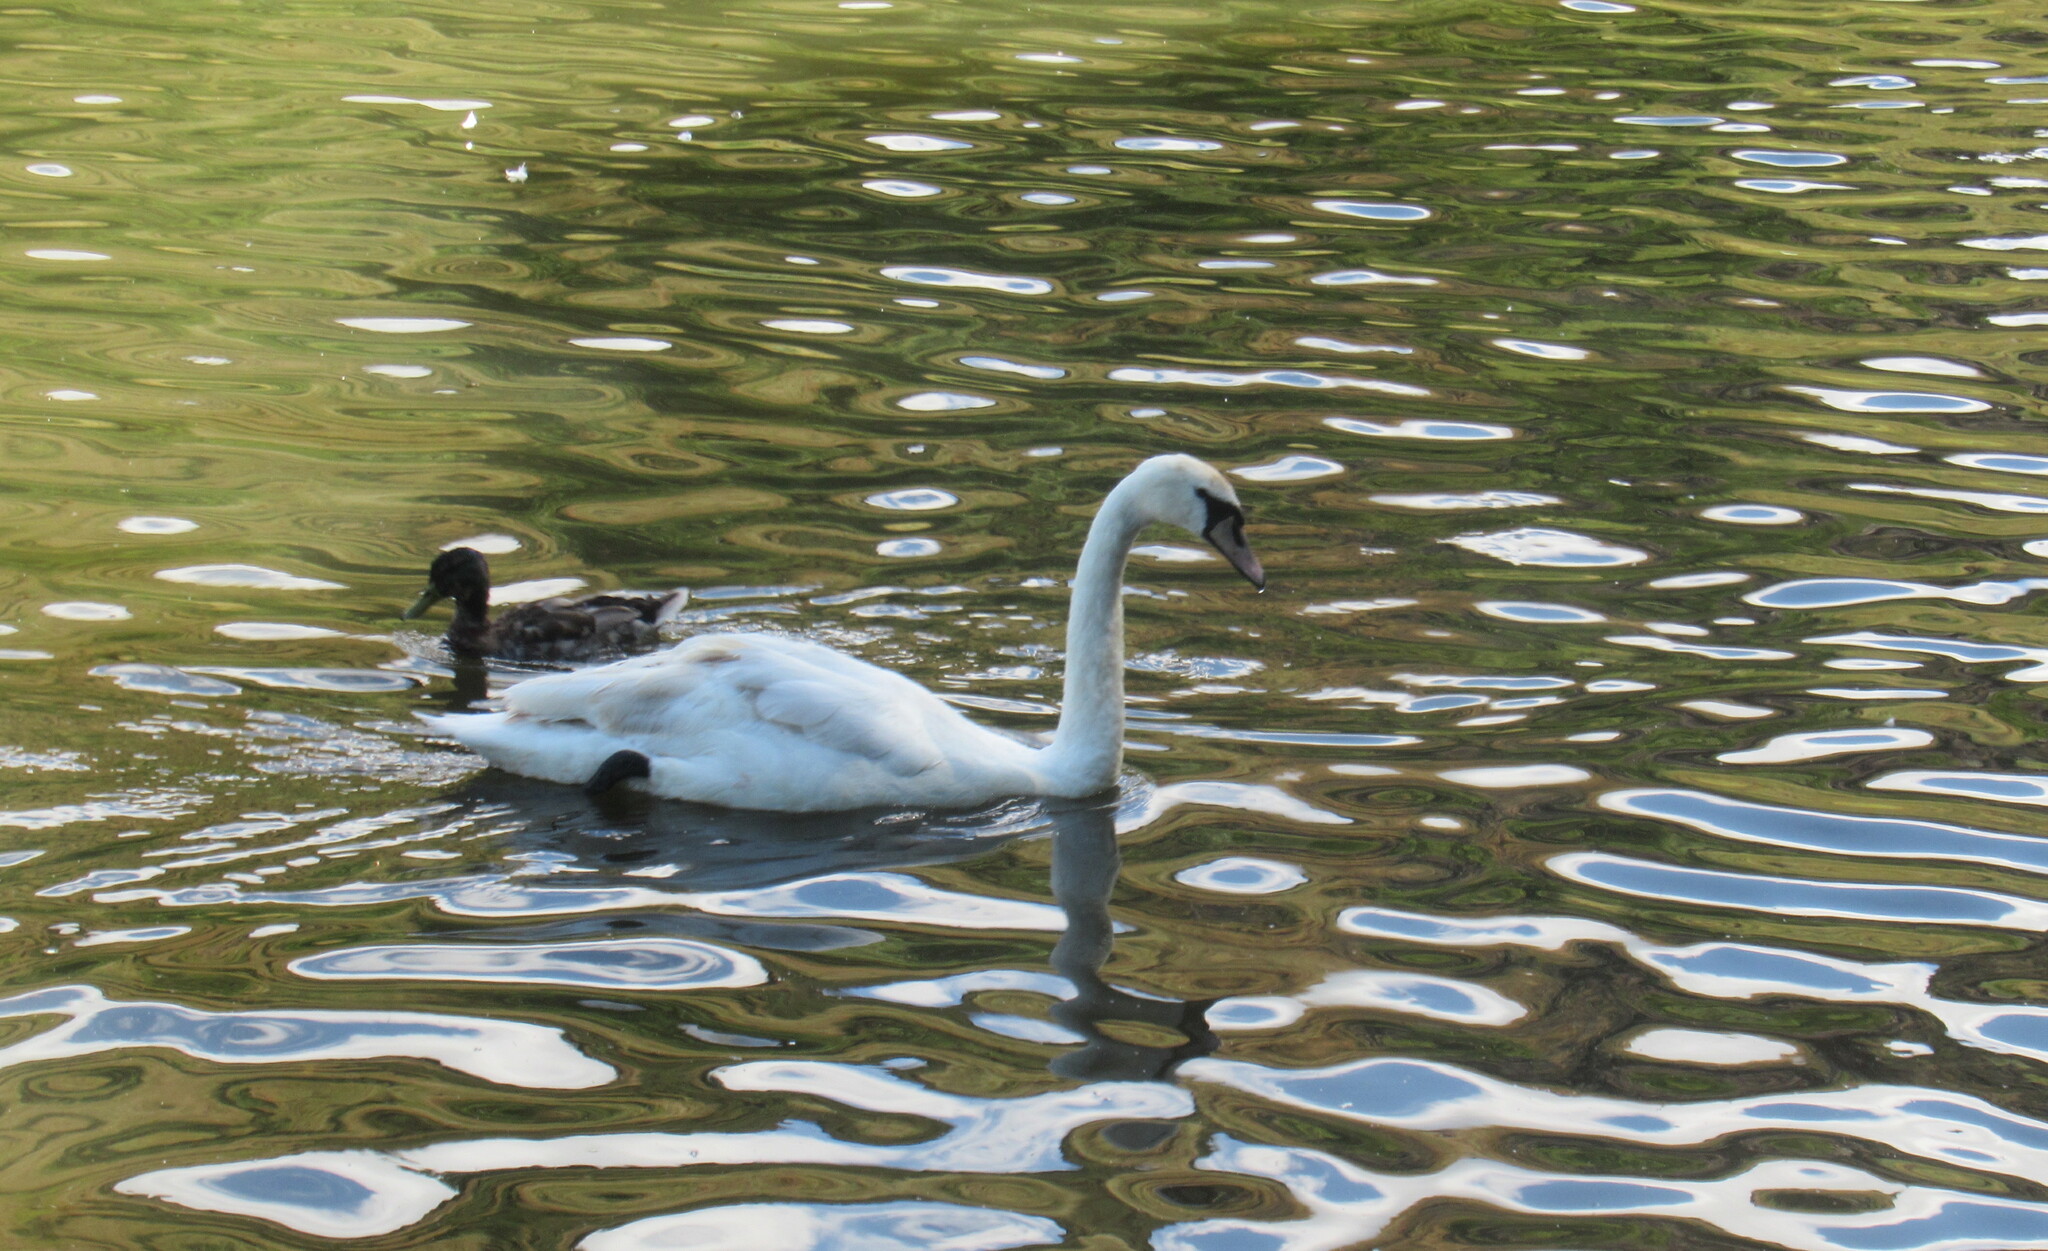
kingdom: Animalia
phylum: Chordata
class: Aves
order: Anseriformes
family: Anatidae
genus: Cygnus
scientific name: Cygnus olor
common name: Mute swan
